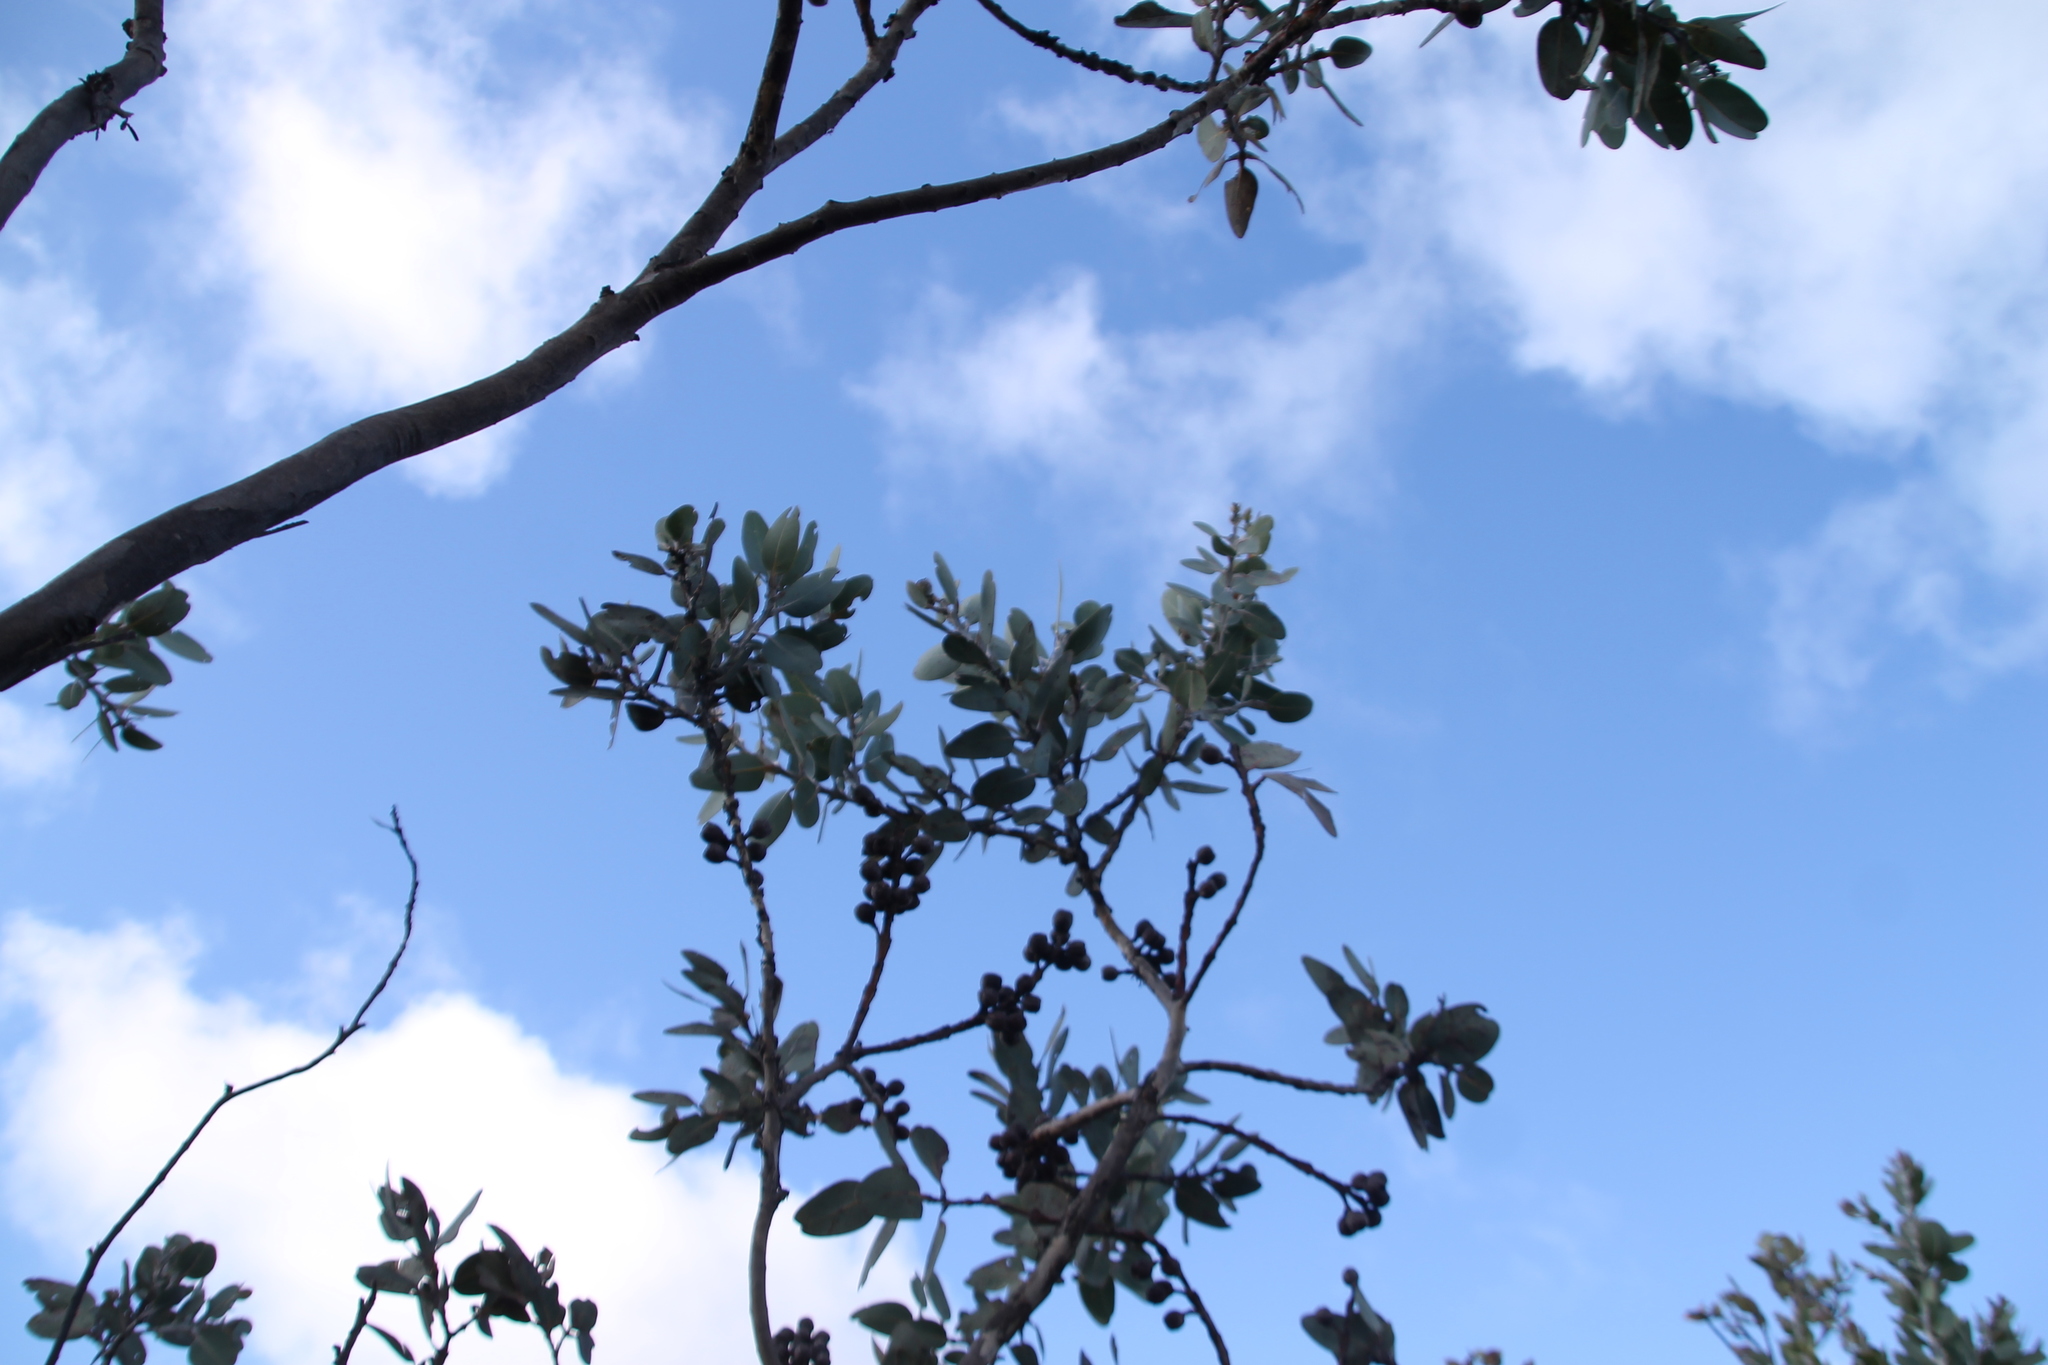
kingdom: Plantae
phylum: Tracheophyta
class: Magnoliopsida
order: Myrtales
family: Myrtaceae
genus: Eucalyptus
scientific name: Eucalyptus tetragona
